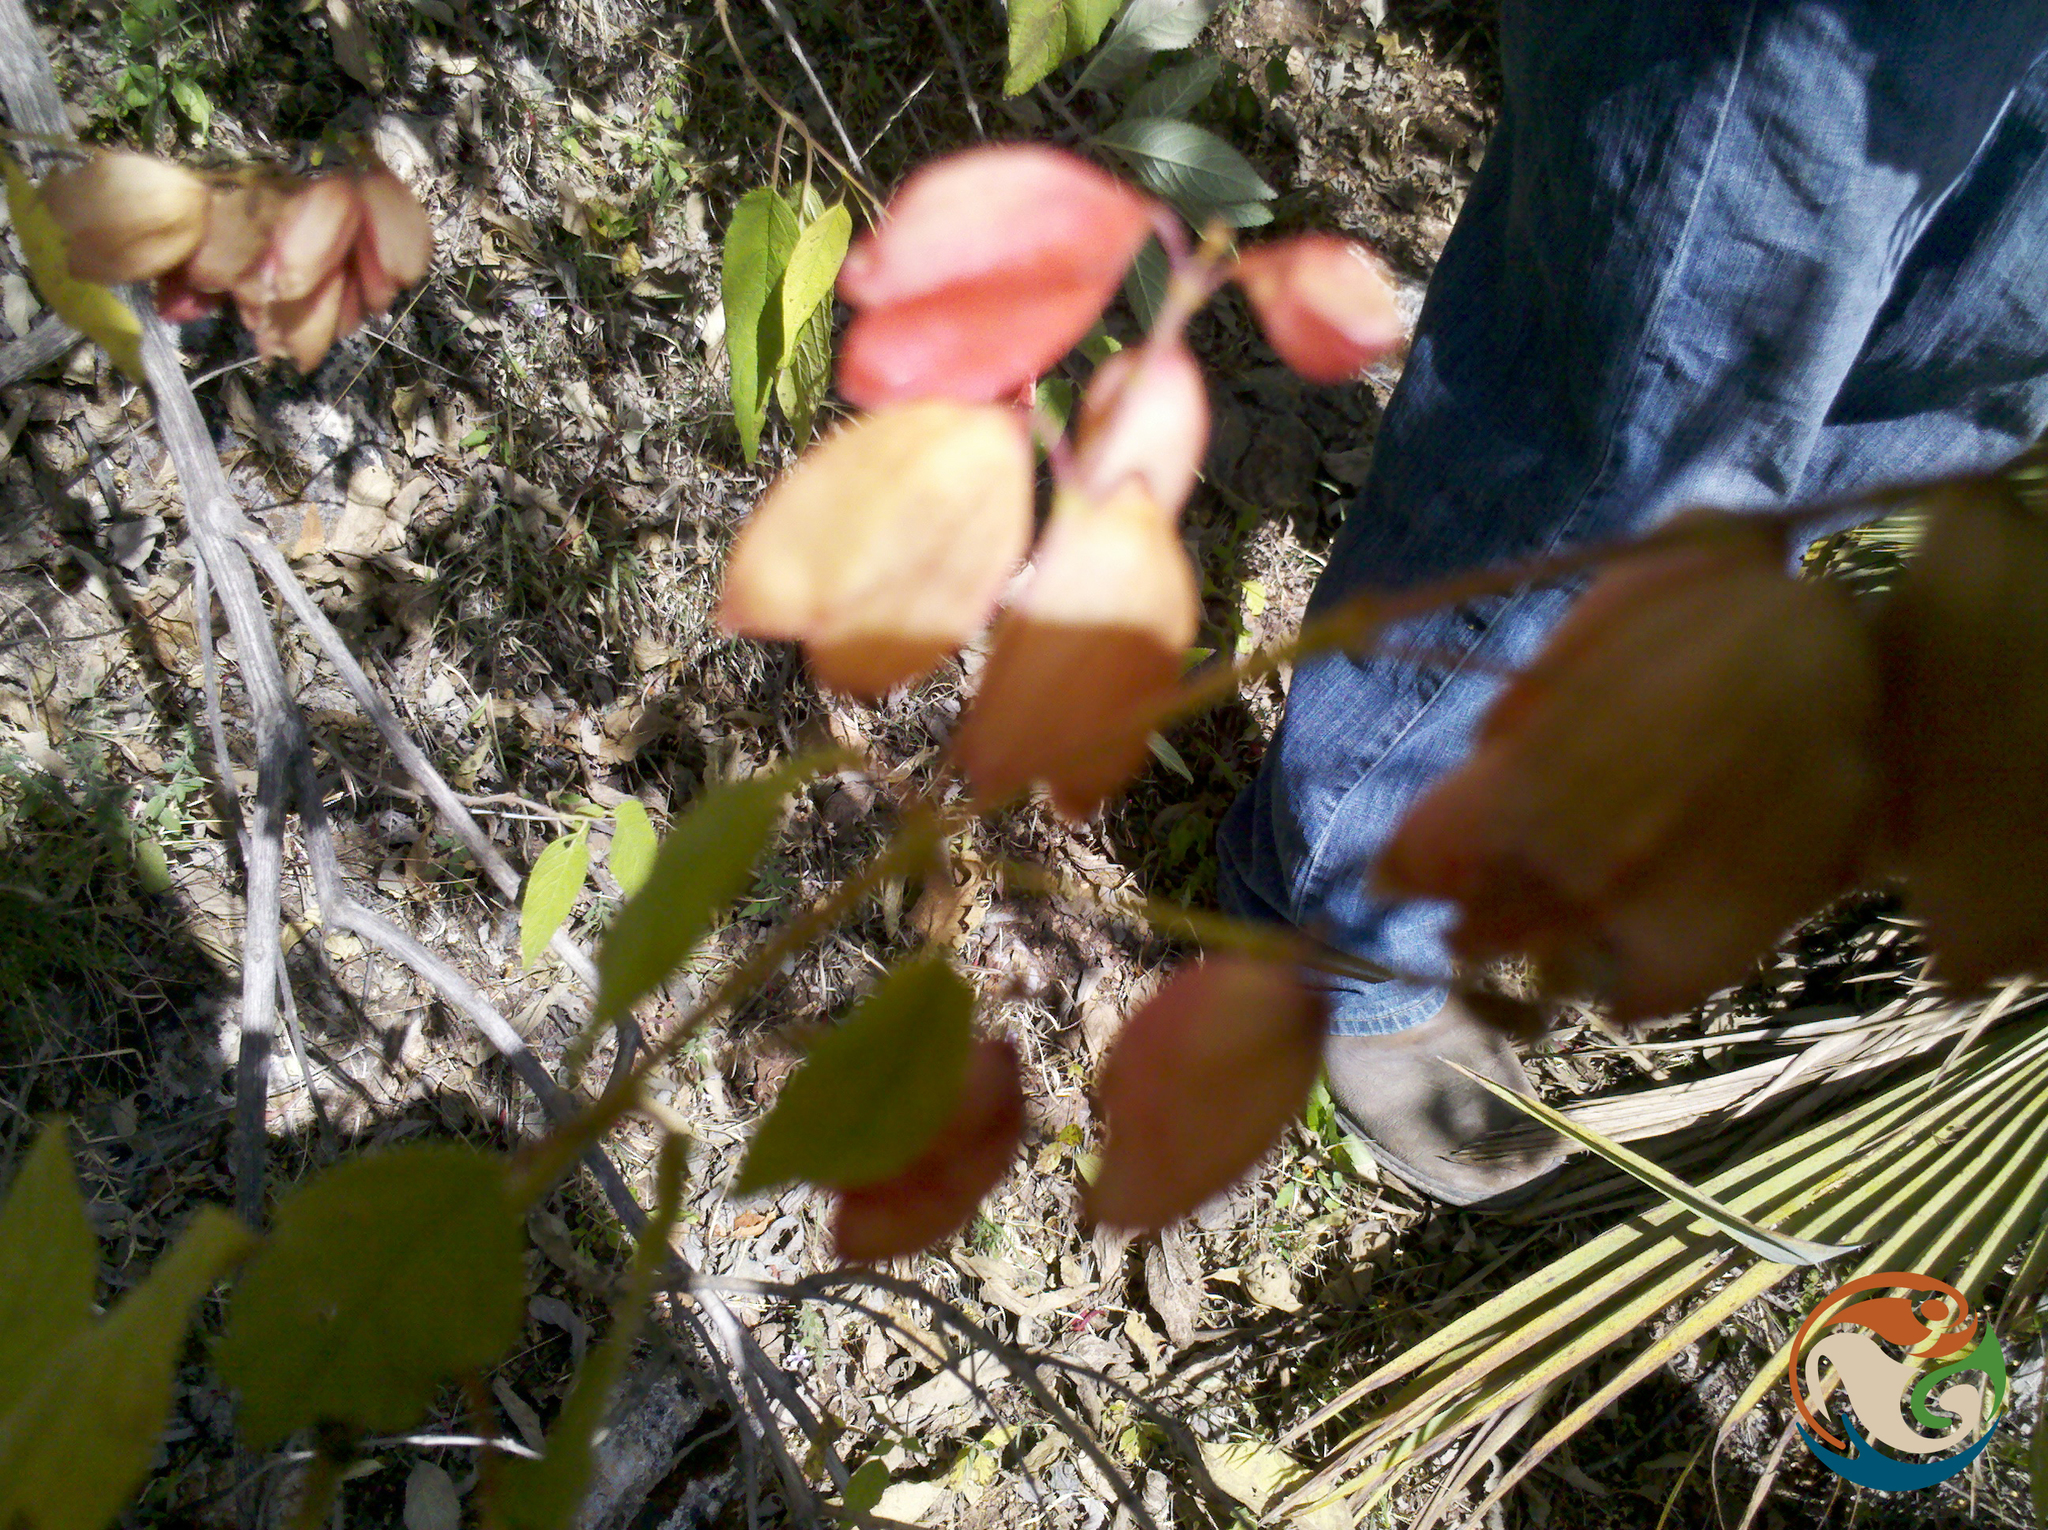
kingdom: Plantae
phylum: Tracheophyta
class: Magnoliopsida
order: Lamiales
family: Lamiaceae
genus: Salvia
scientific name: Salvia sessei
